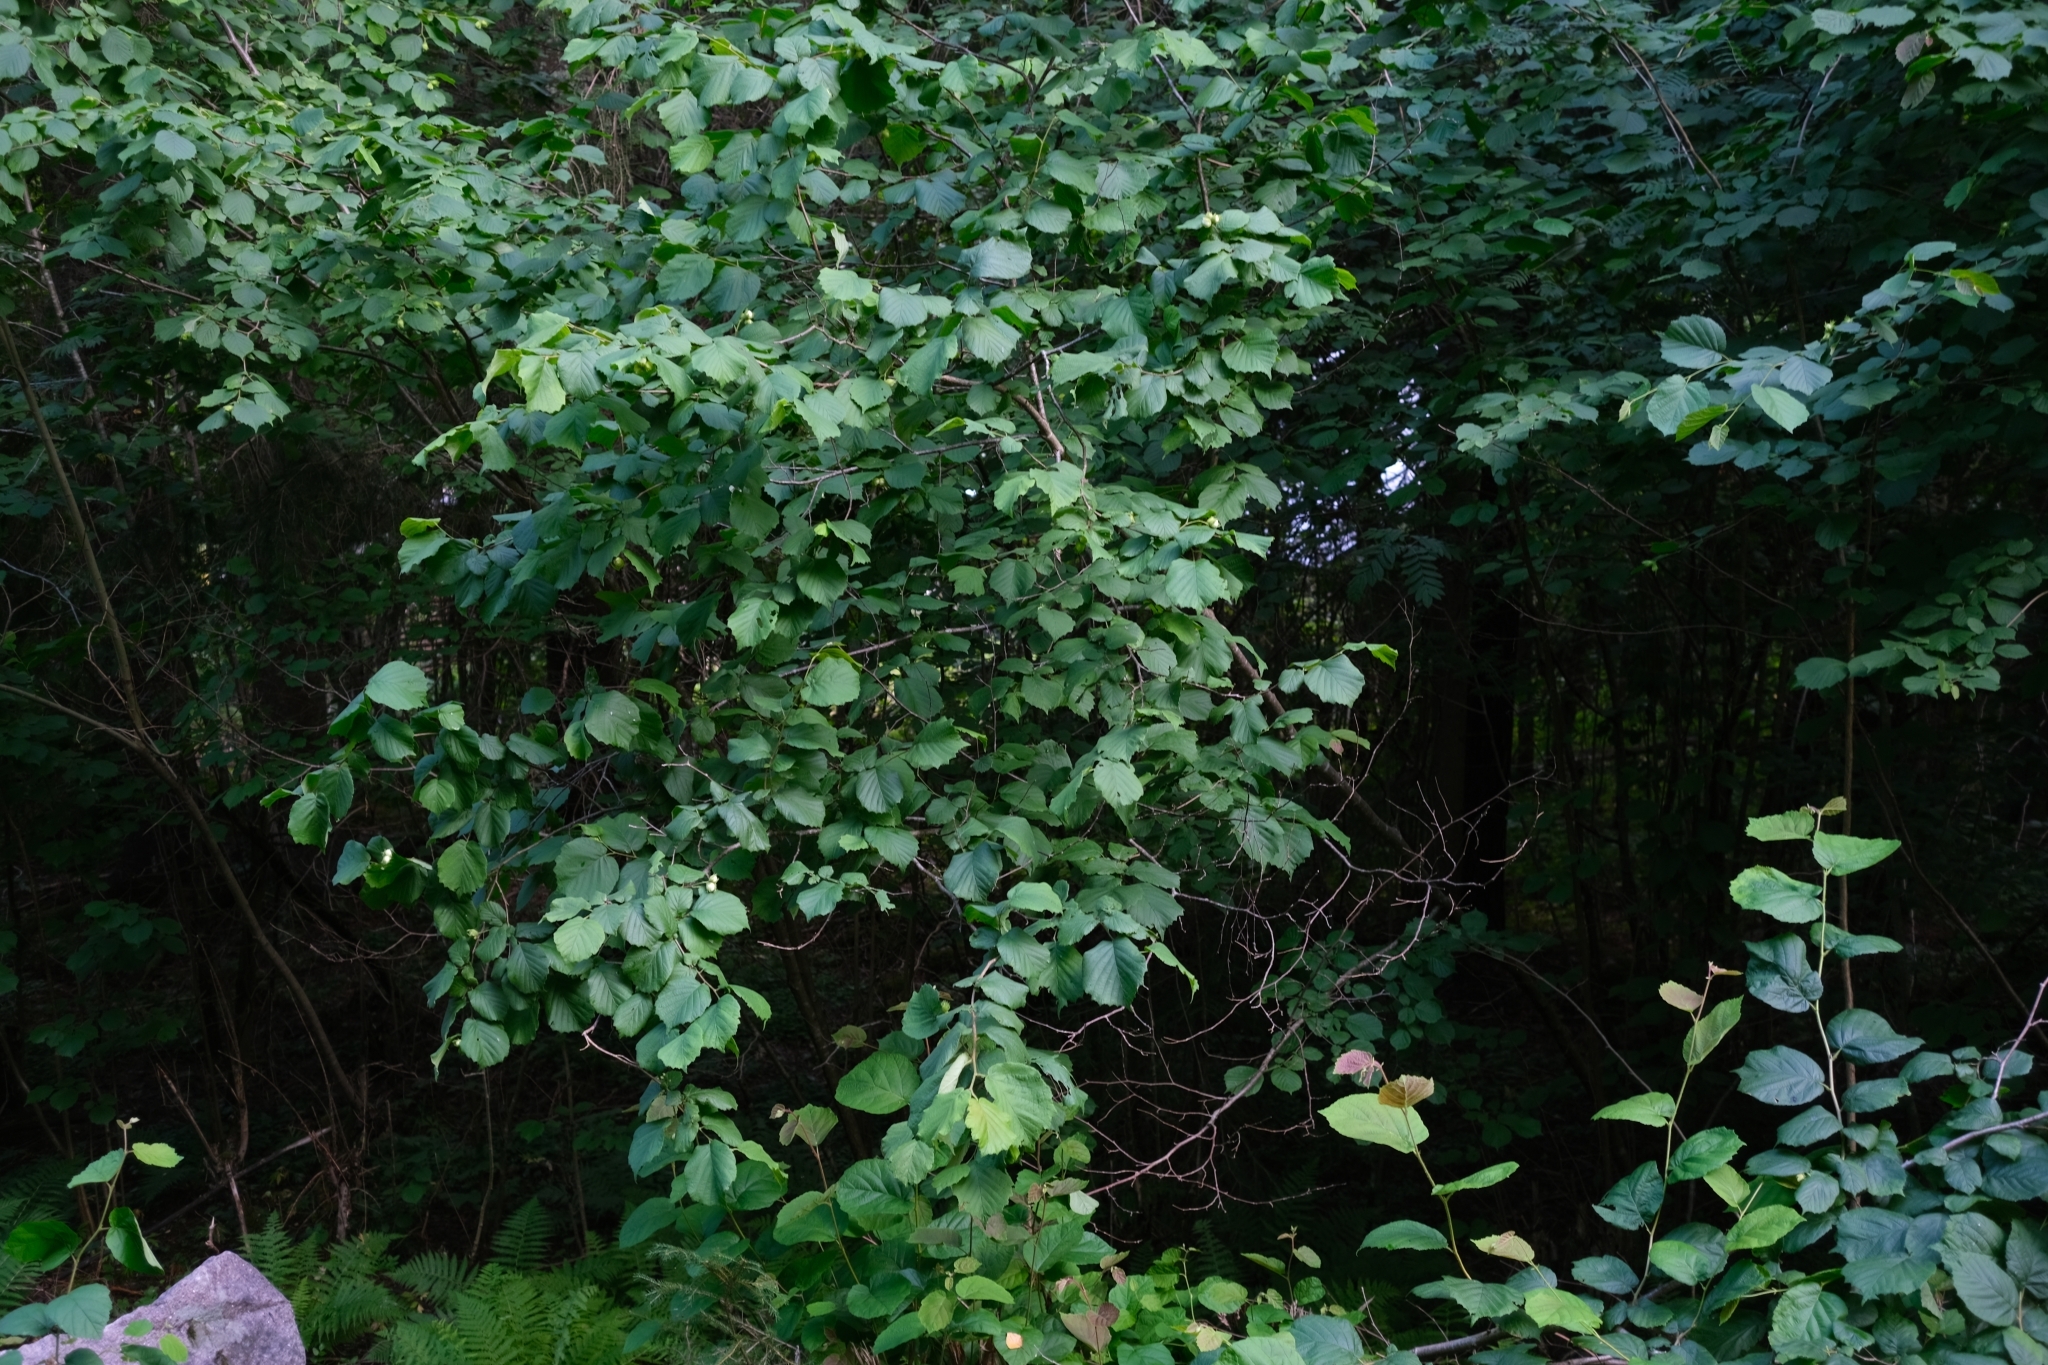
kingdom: Plantae
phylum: Tracheophyta
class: Magnoliopsida
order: Fagales
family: Betulaceae
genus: Corylus
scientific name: Corylus avellana
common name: European hazel
